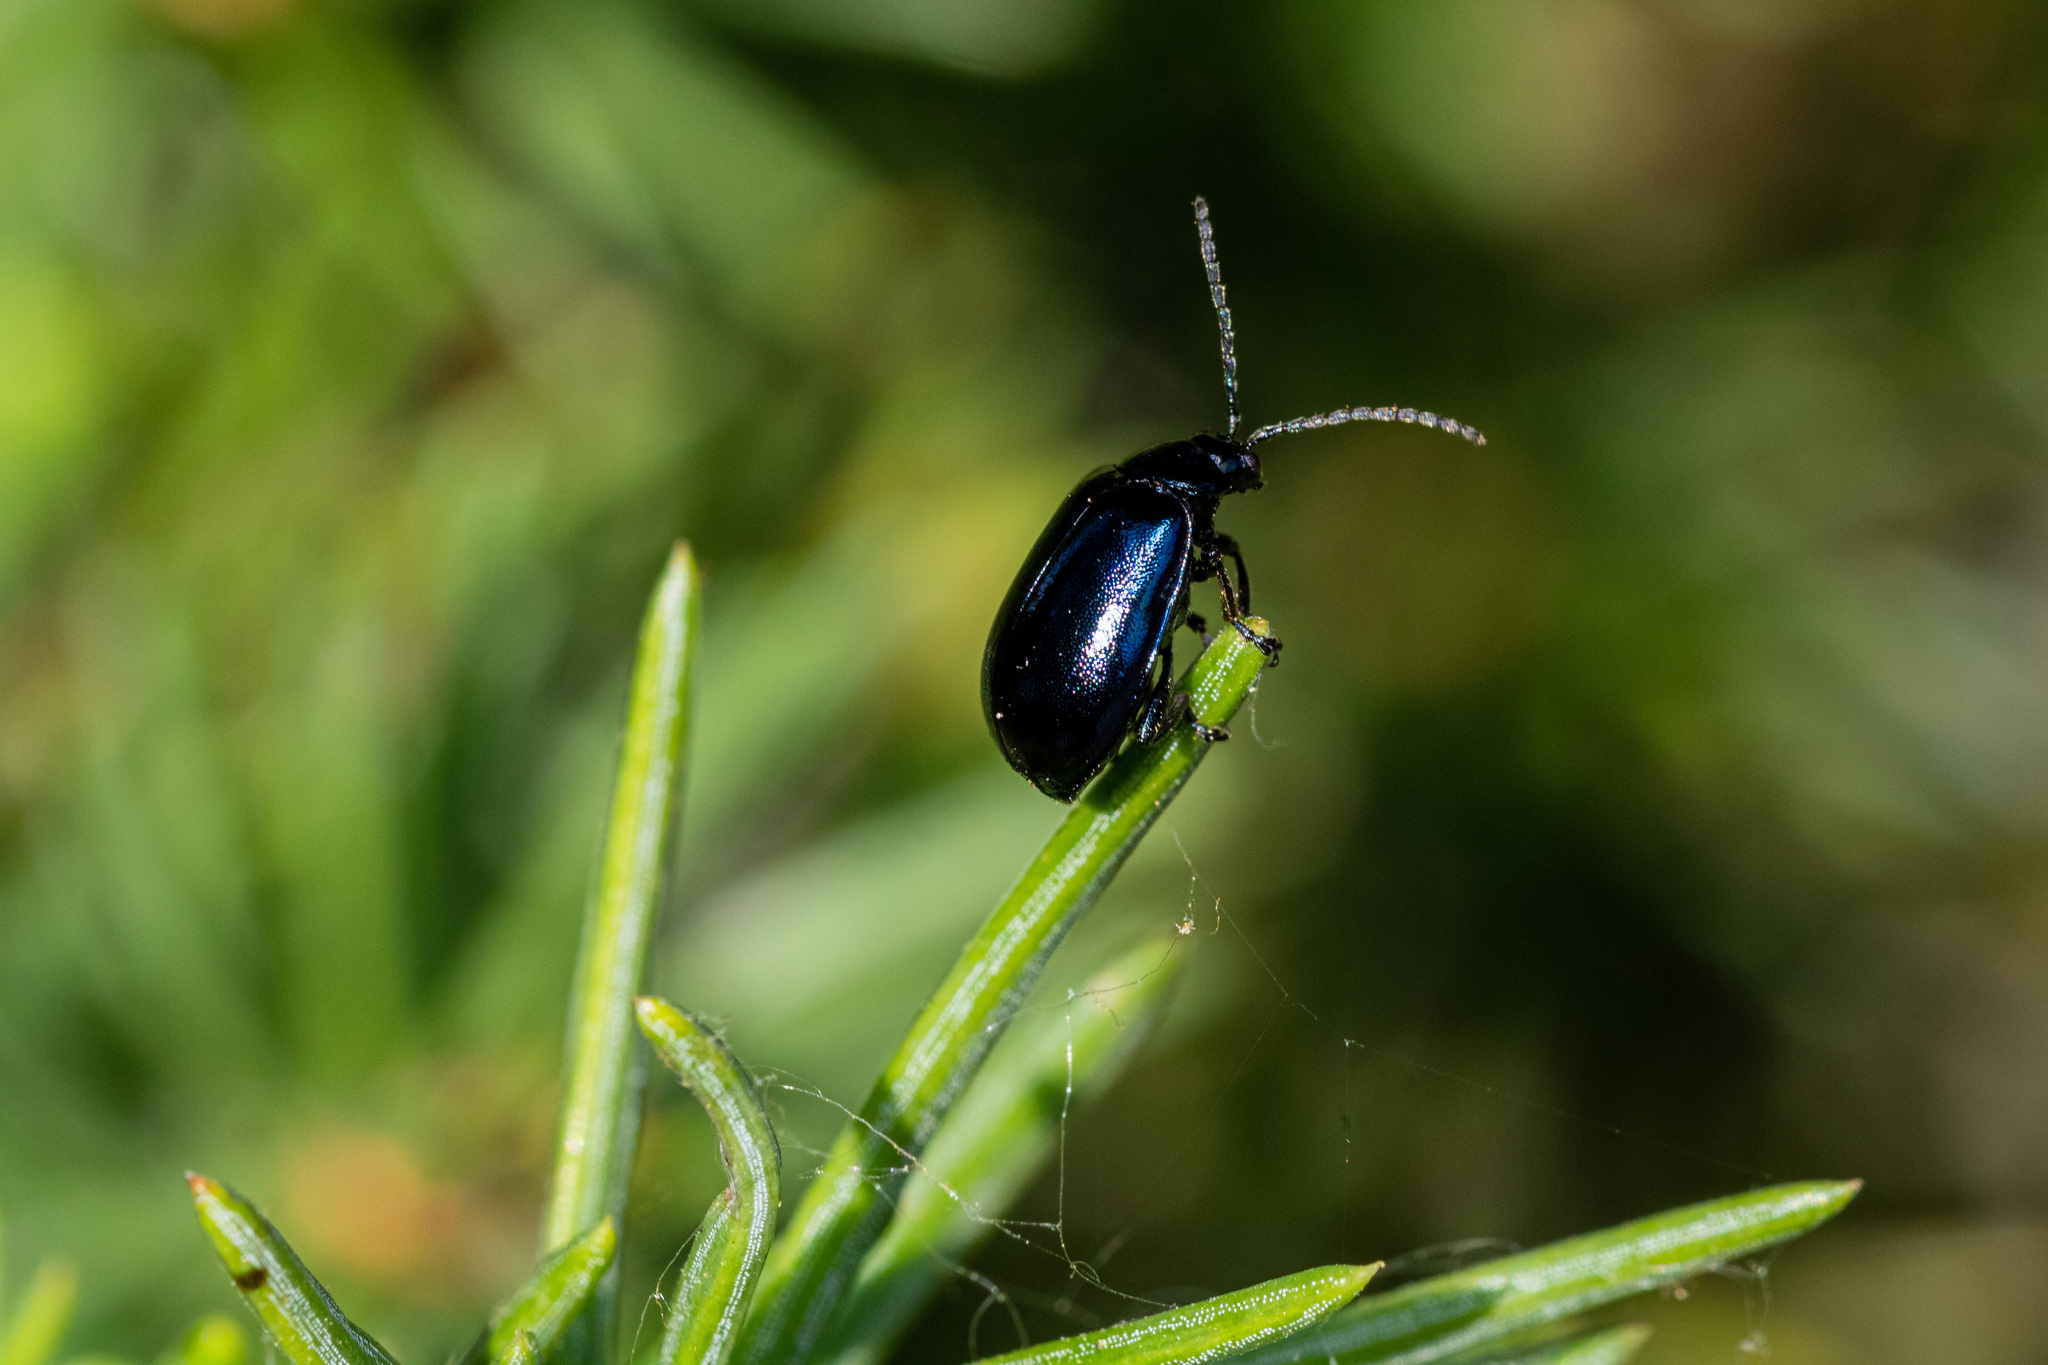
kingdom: Animalia
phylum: Arthropoda
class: Insecta
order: Coleoptera
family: Chrysomelidae
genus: Agelastica
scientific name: Agelastica alni
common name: Alder leaf beetle
